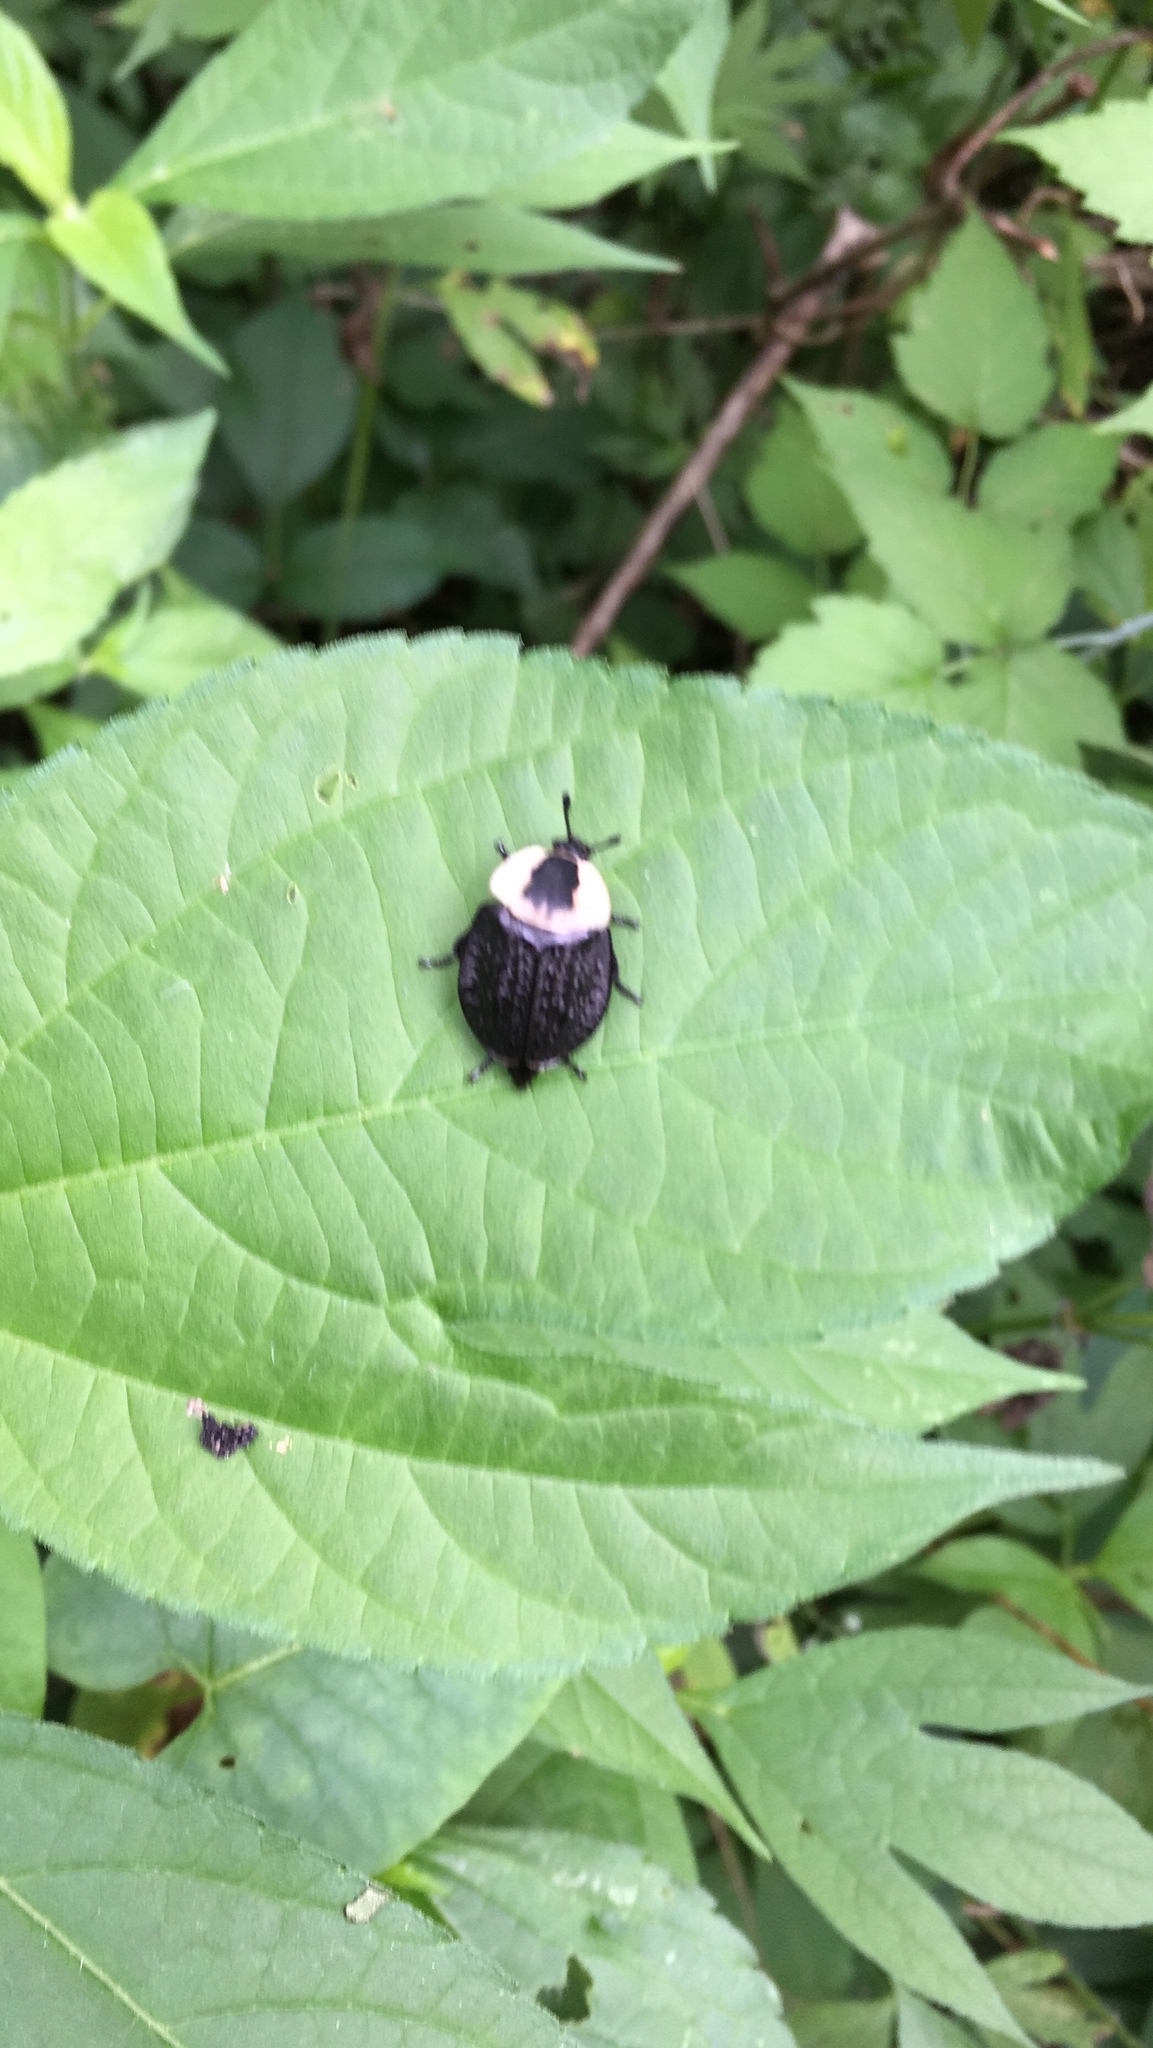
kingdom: Animalia
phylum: Arthropoda
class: Insecta
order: Coleoptera
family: Staphylinidae
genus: Necrophila
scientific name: Necrophila americana
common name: American carrion beetle
